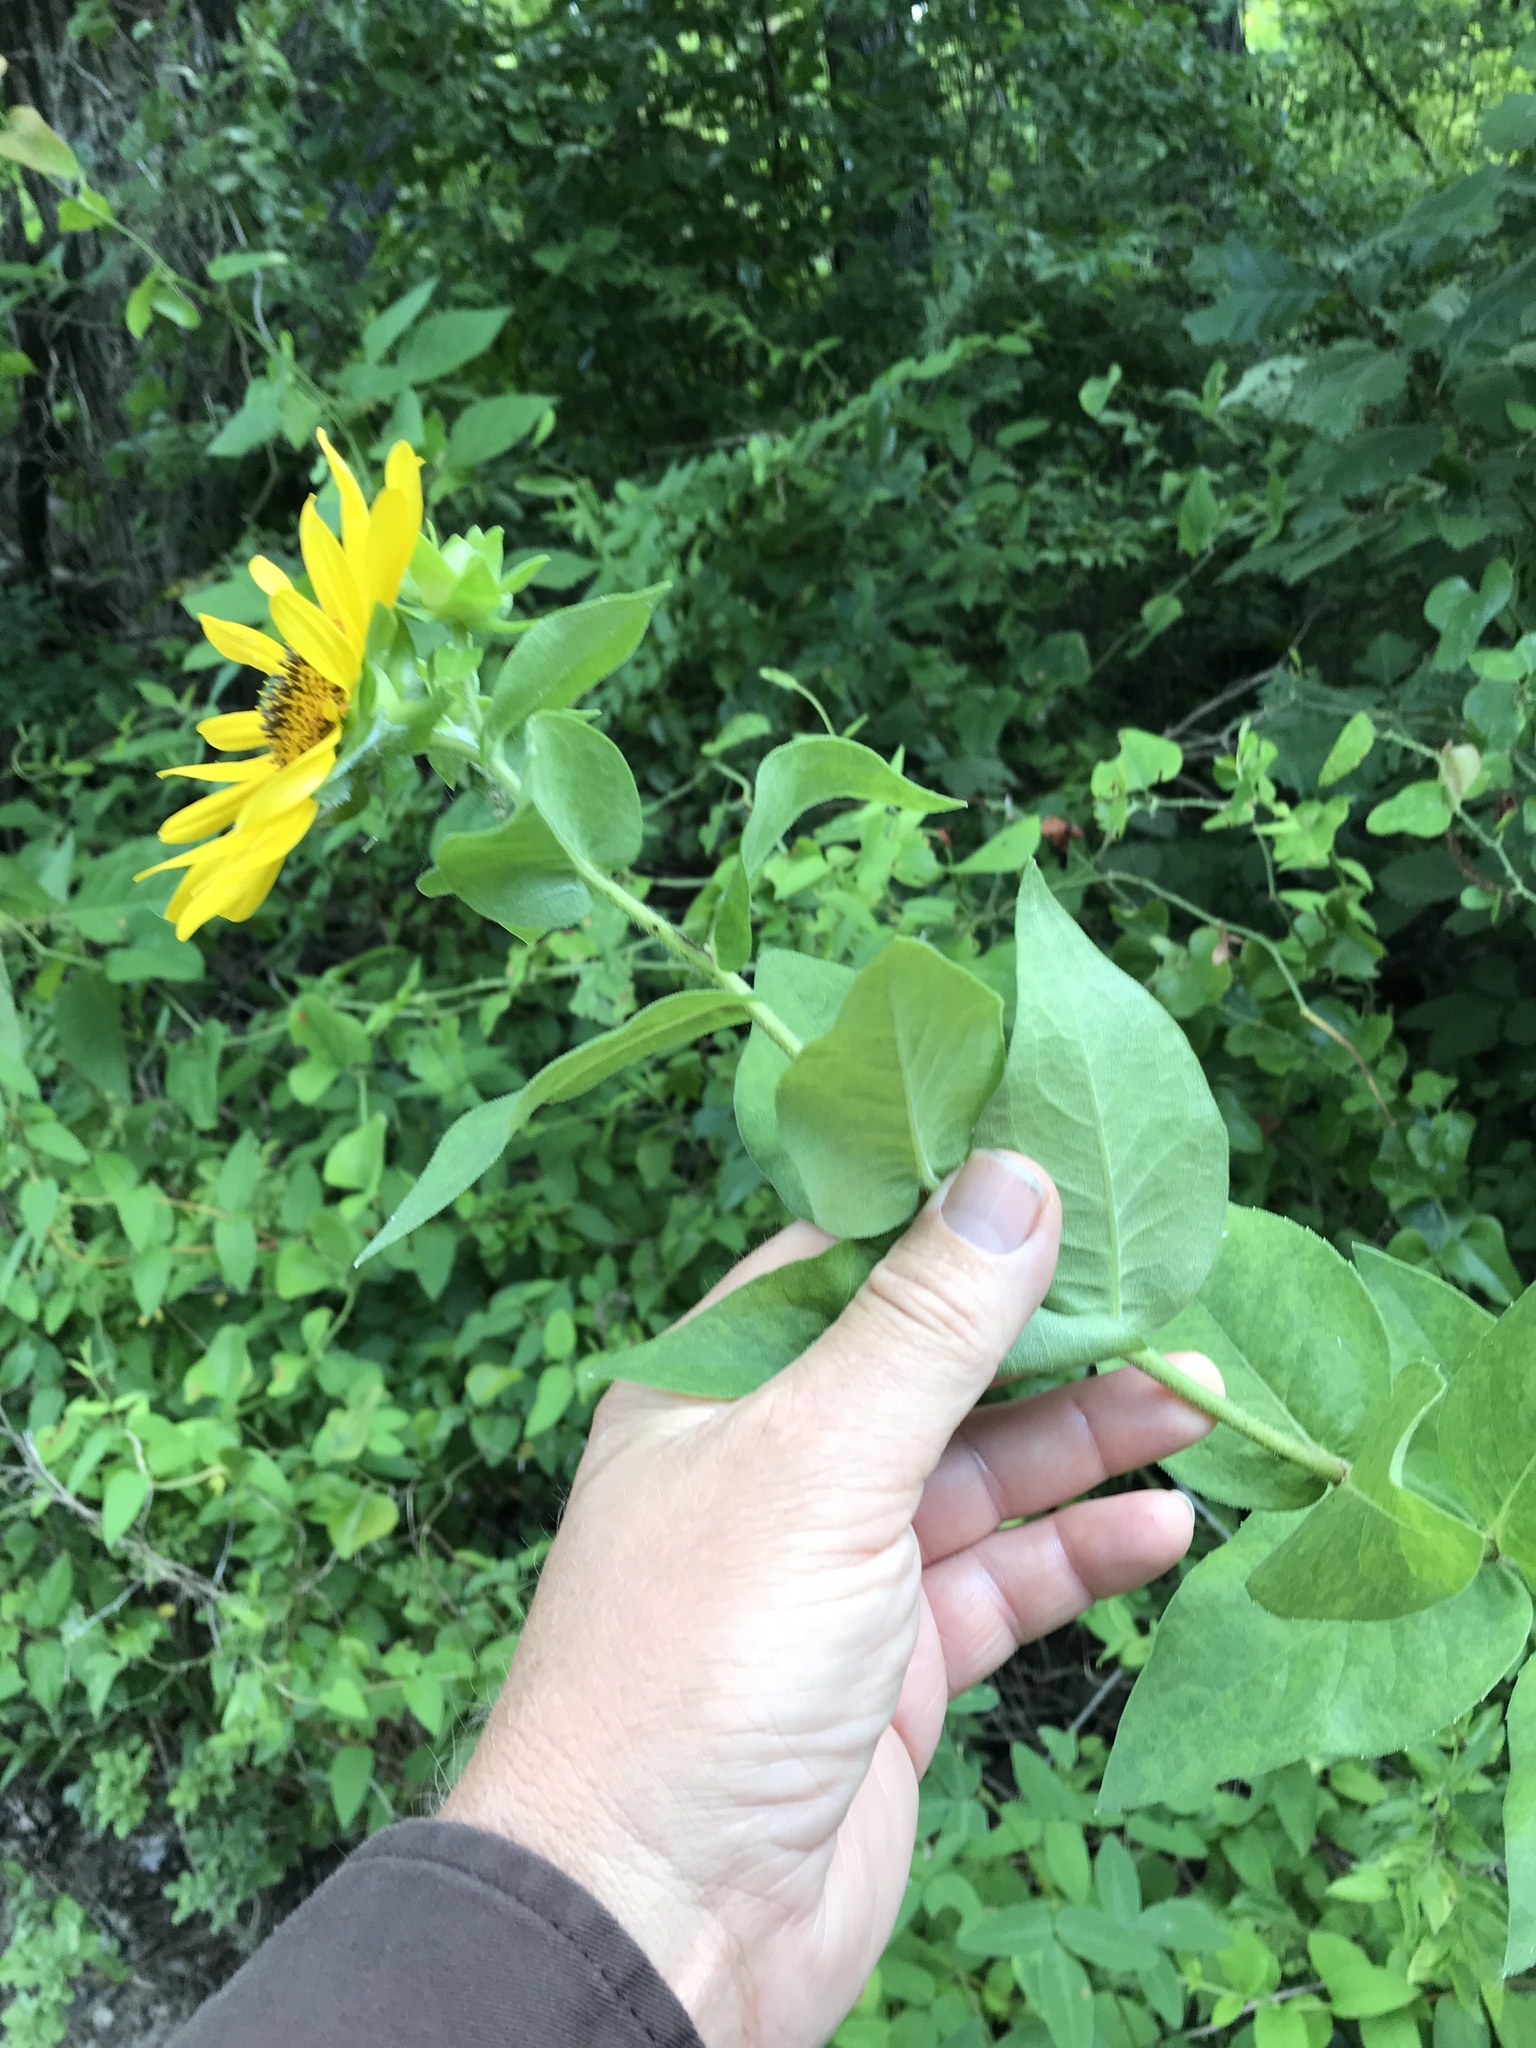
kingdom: Plantae
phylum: Tracheophyta
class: Magnoliopsida
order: Asterales
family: Asteraceae
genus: Silphium
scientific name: Silphium radula
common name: Roughleaf rosinweed
